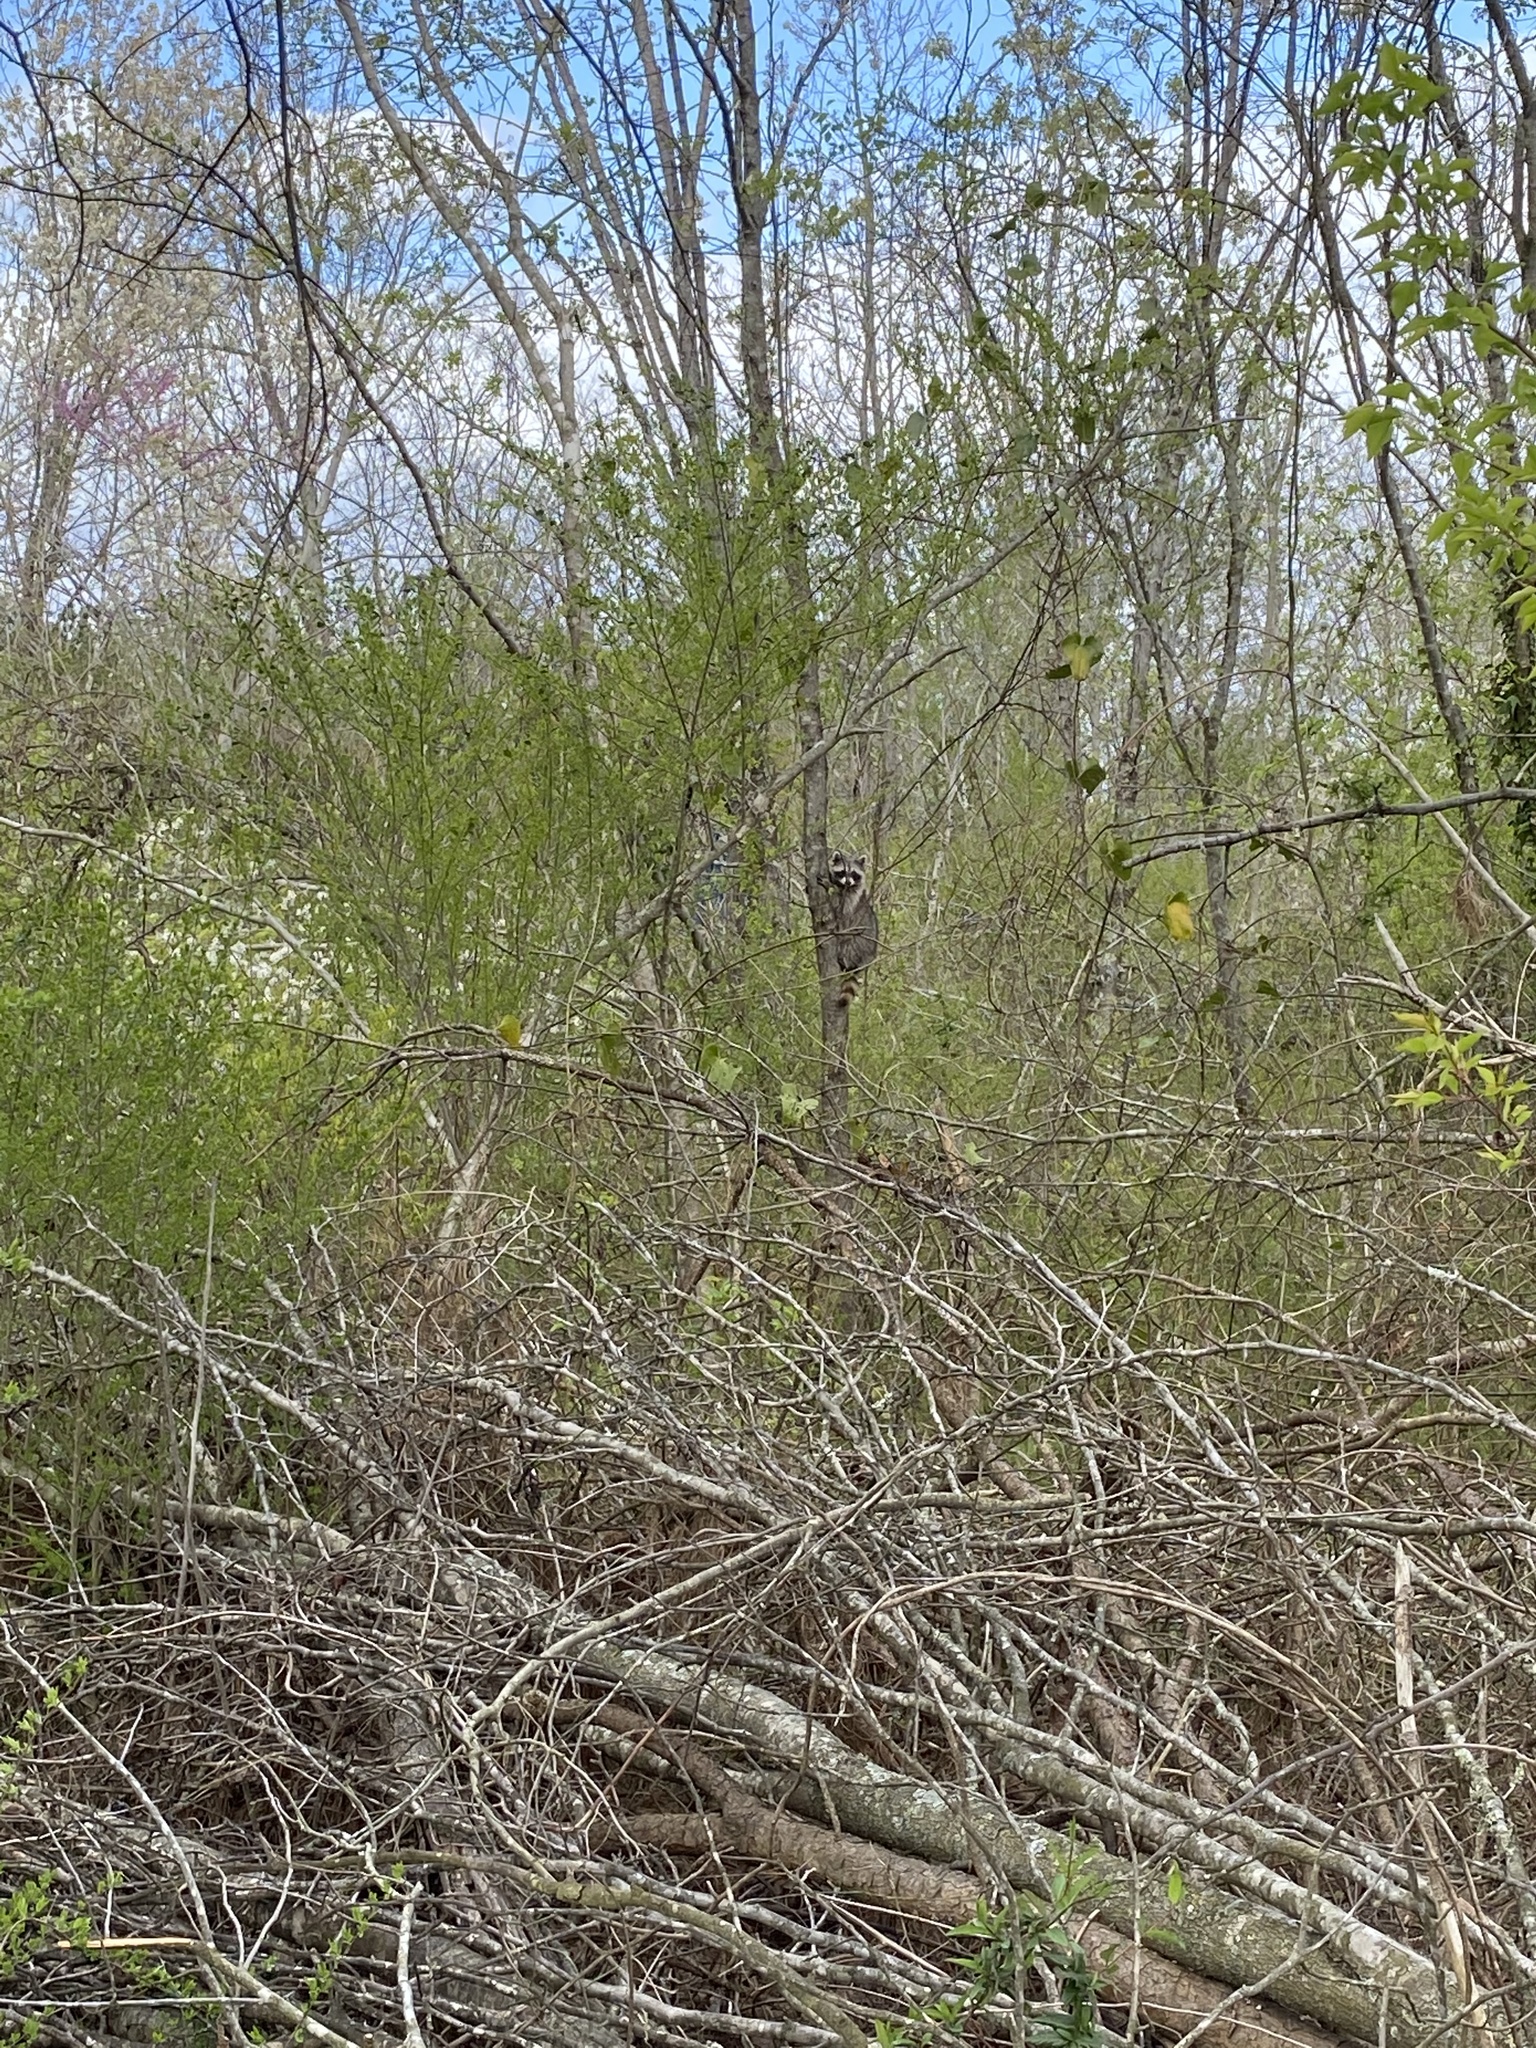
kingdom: Animalia
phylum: Chordata
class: Mammalia
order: Carnivora
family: Procyonidae
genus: Procyon
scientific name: Procyon lotor
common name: Raccoon
